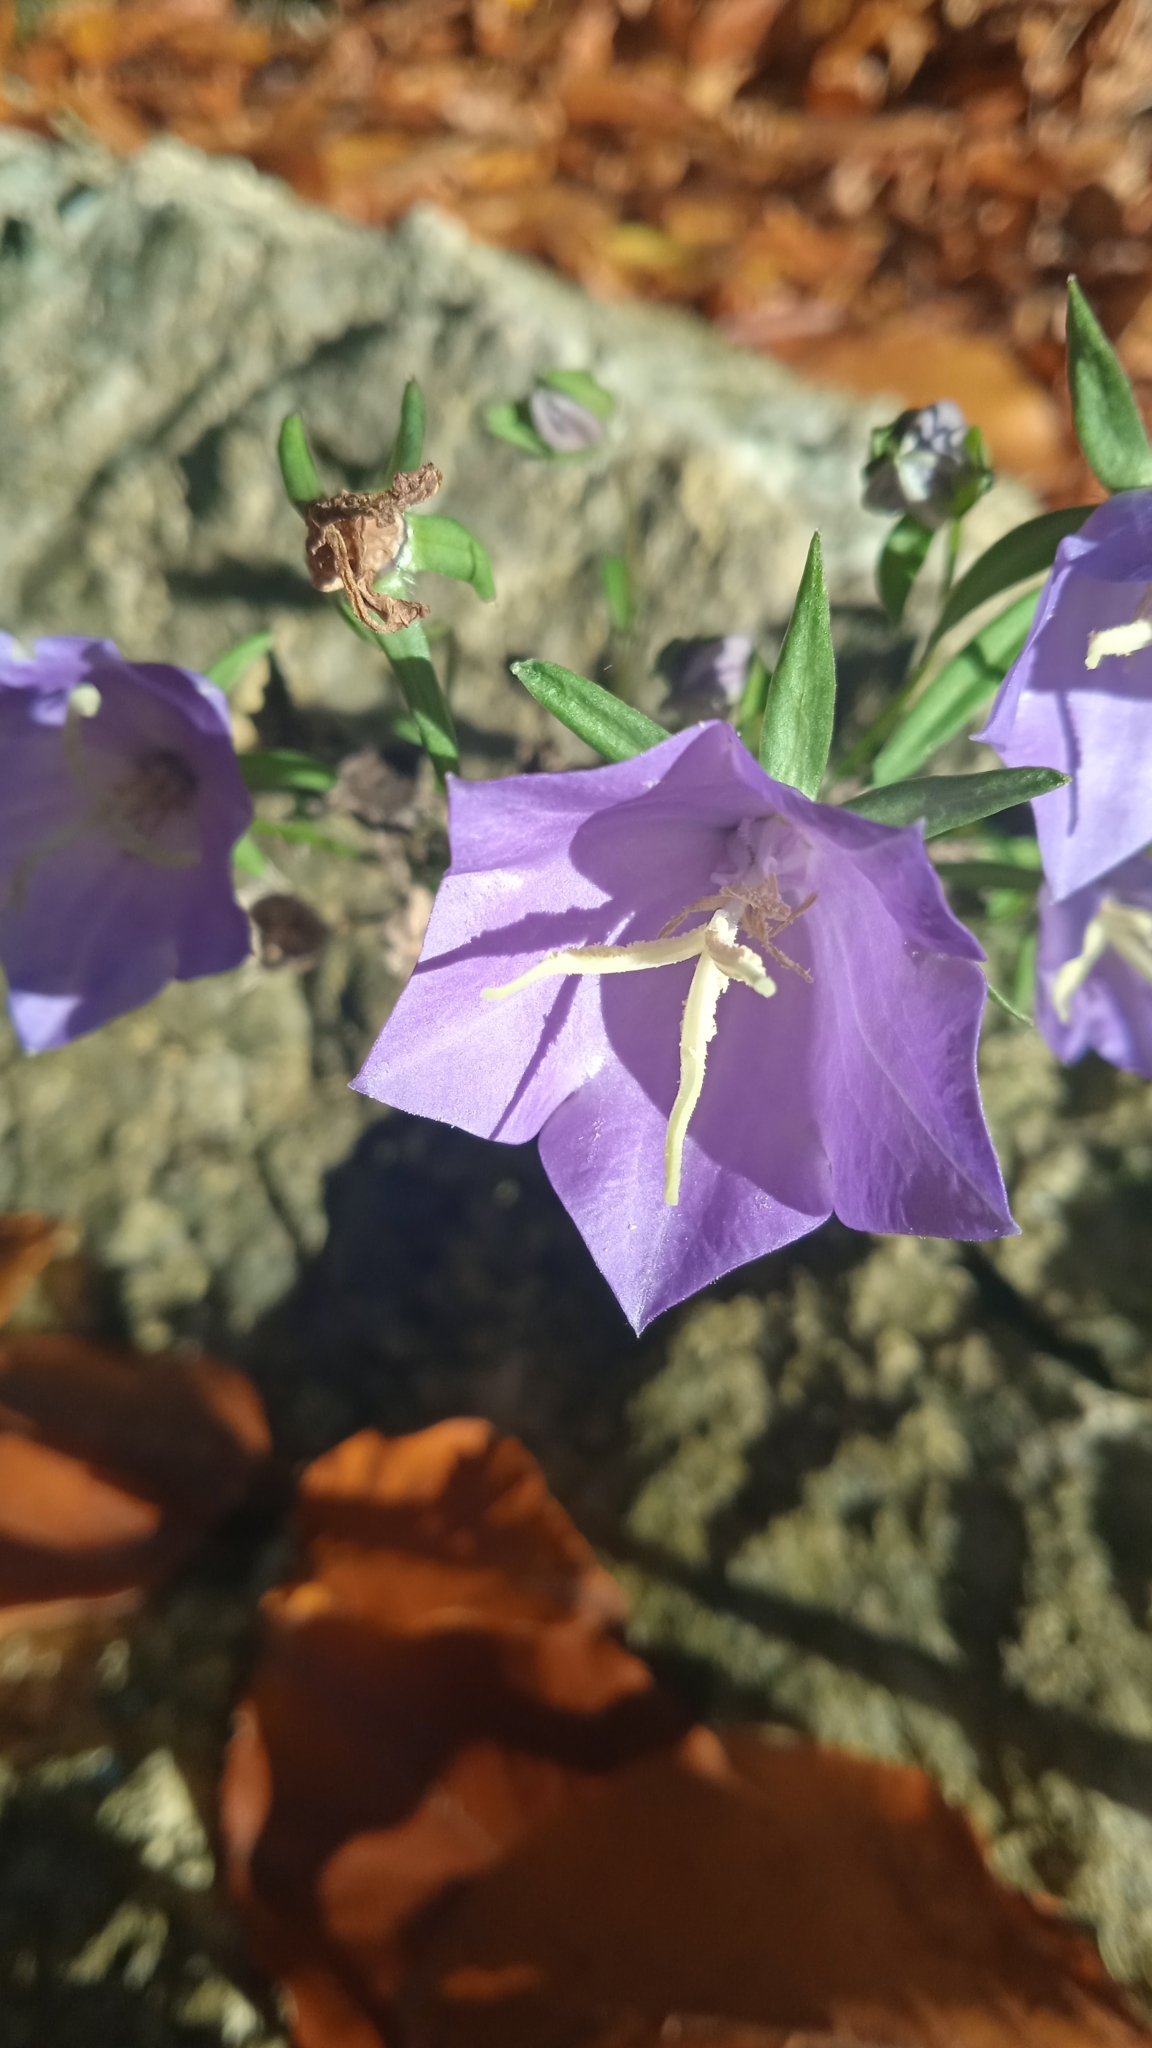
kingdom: Plantae
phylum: Tracheophyta
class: Magnoliopsida
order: Asterales
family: Campanulaceae
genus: Campanula
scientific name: Campanula persicifolia
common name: Peach-leaved bellflower
